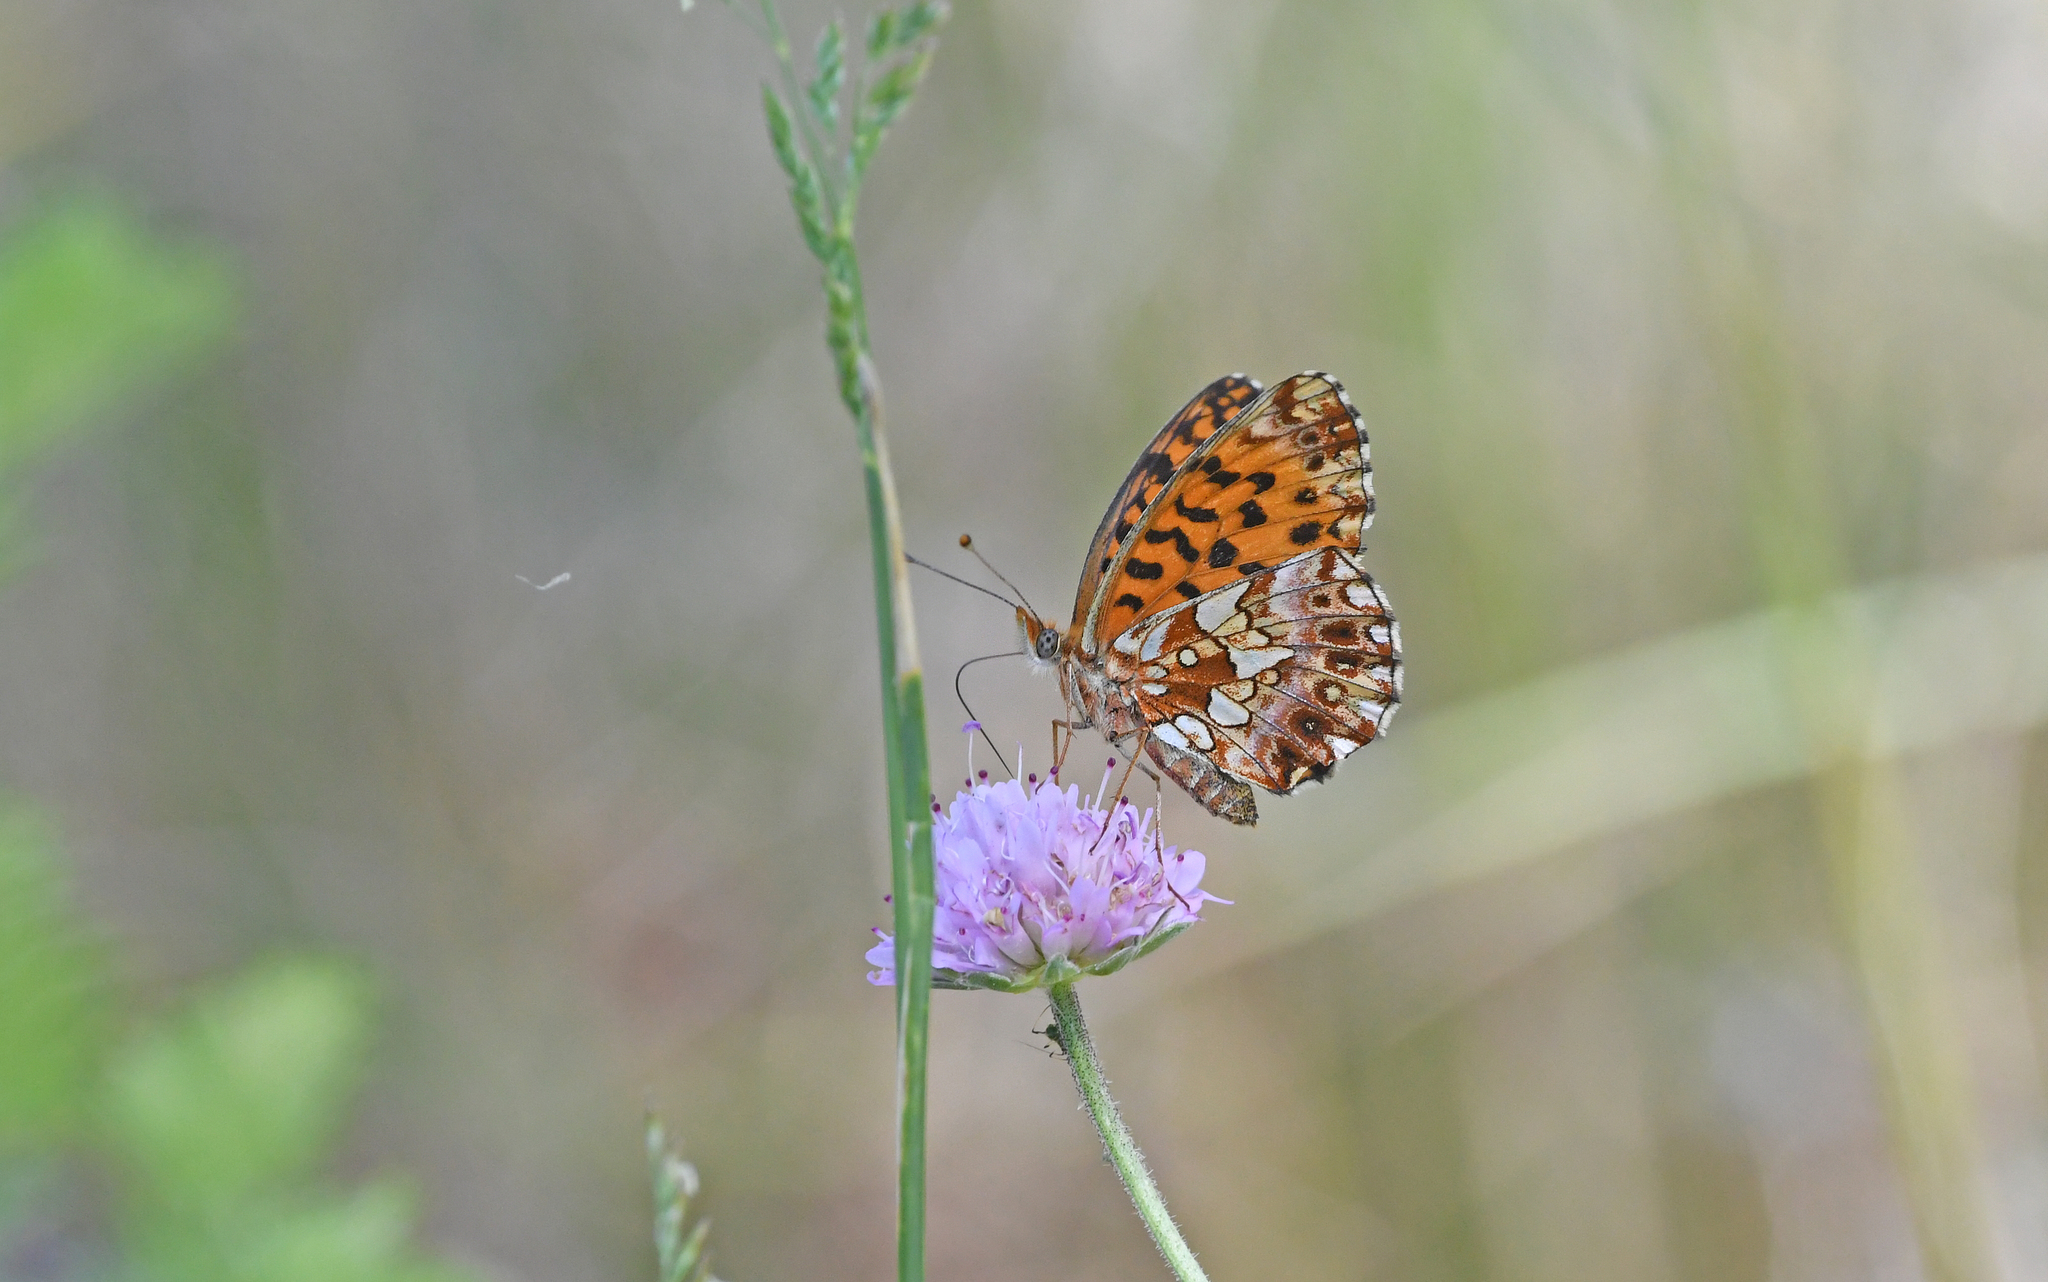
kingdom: Animalia
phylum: Arthropoda
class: Insecta
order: Lepidoptera
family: Nymphalidae
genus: Boloria
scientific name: Boloria dia
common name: Weaver's fritillary
